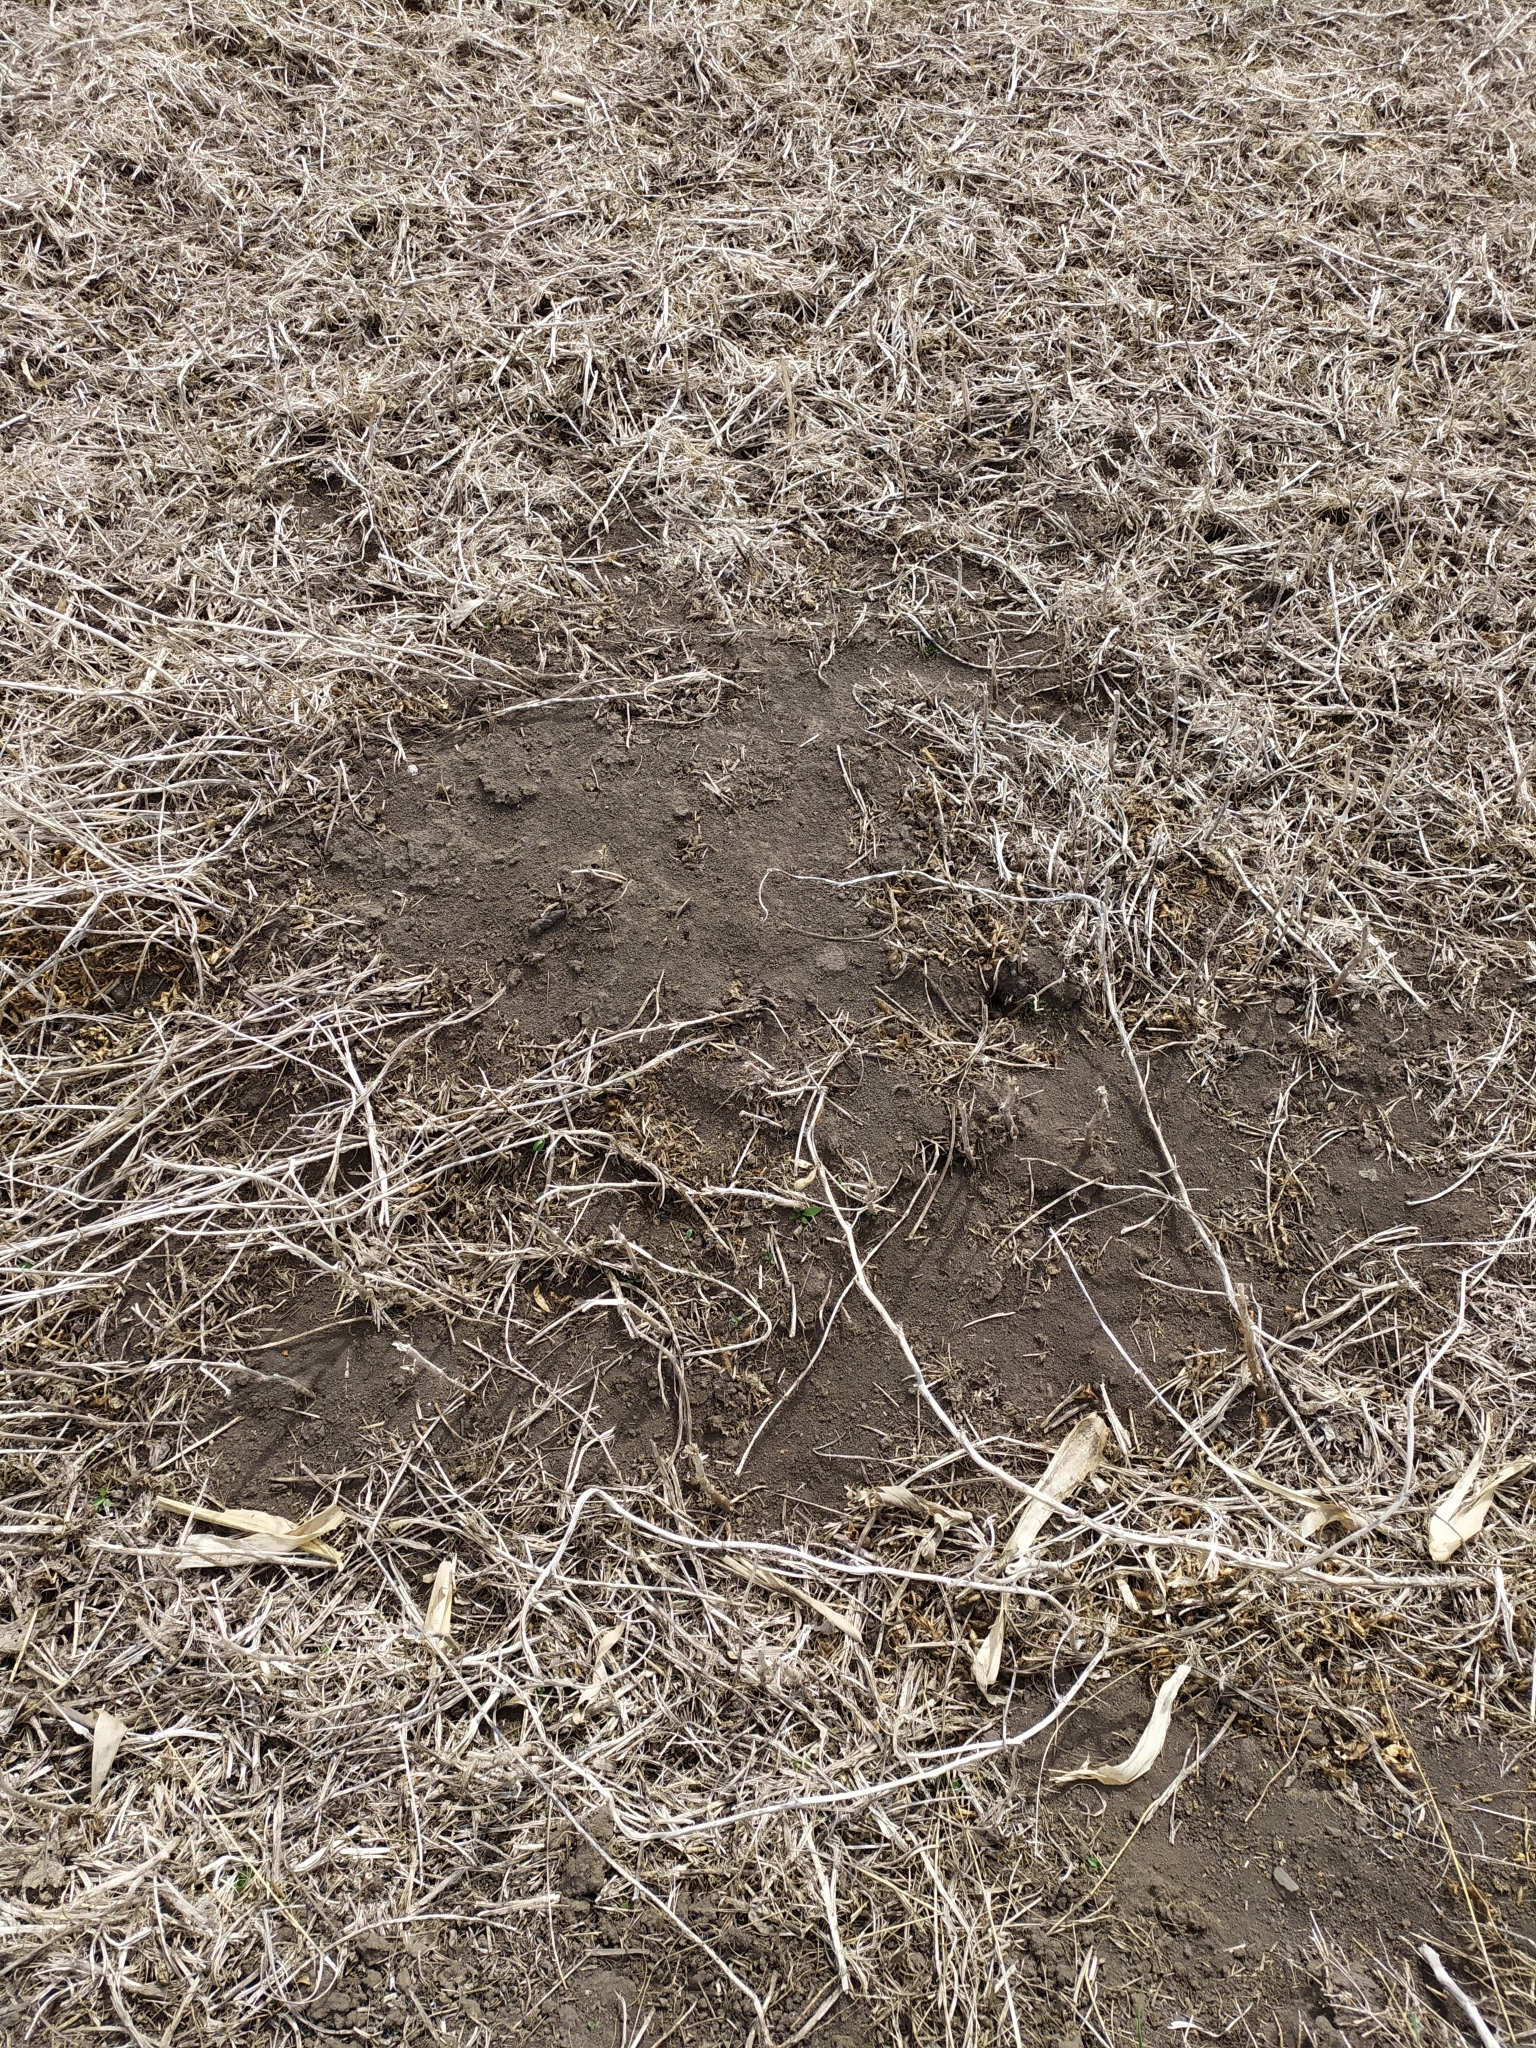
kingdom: Animalia
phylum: Chordata
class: Mammalia
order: Rodentia
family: Muridae
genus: Mus
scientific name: Mus spicilegus
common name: Mound-building mouse
